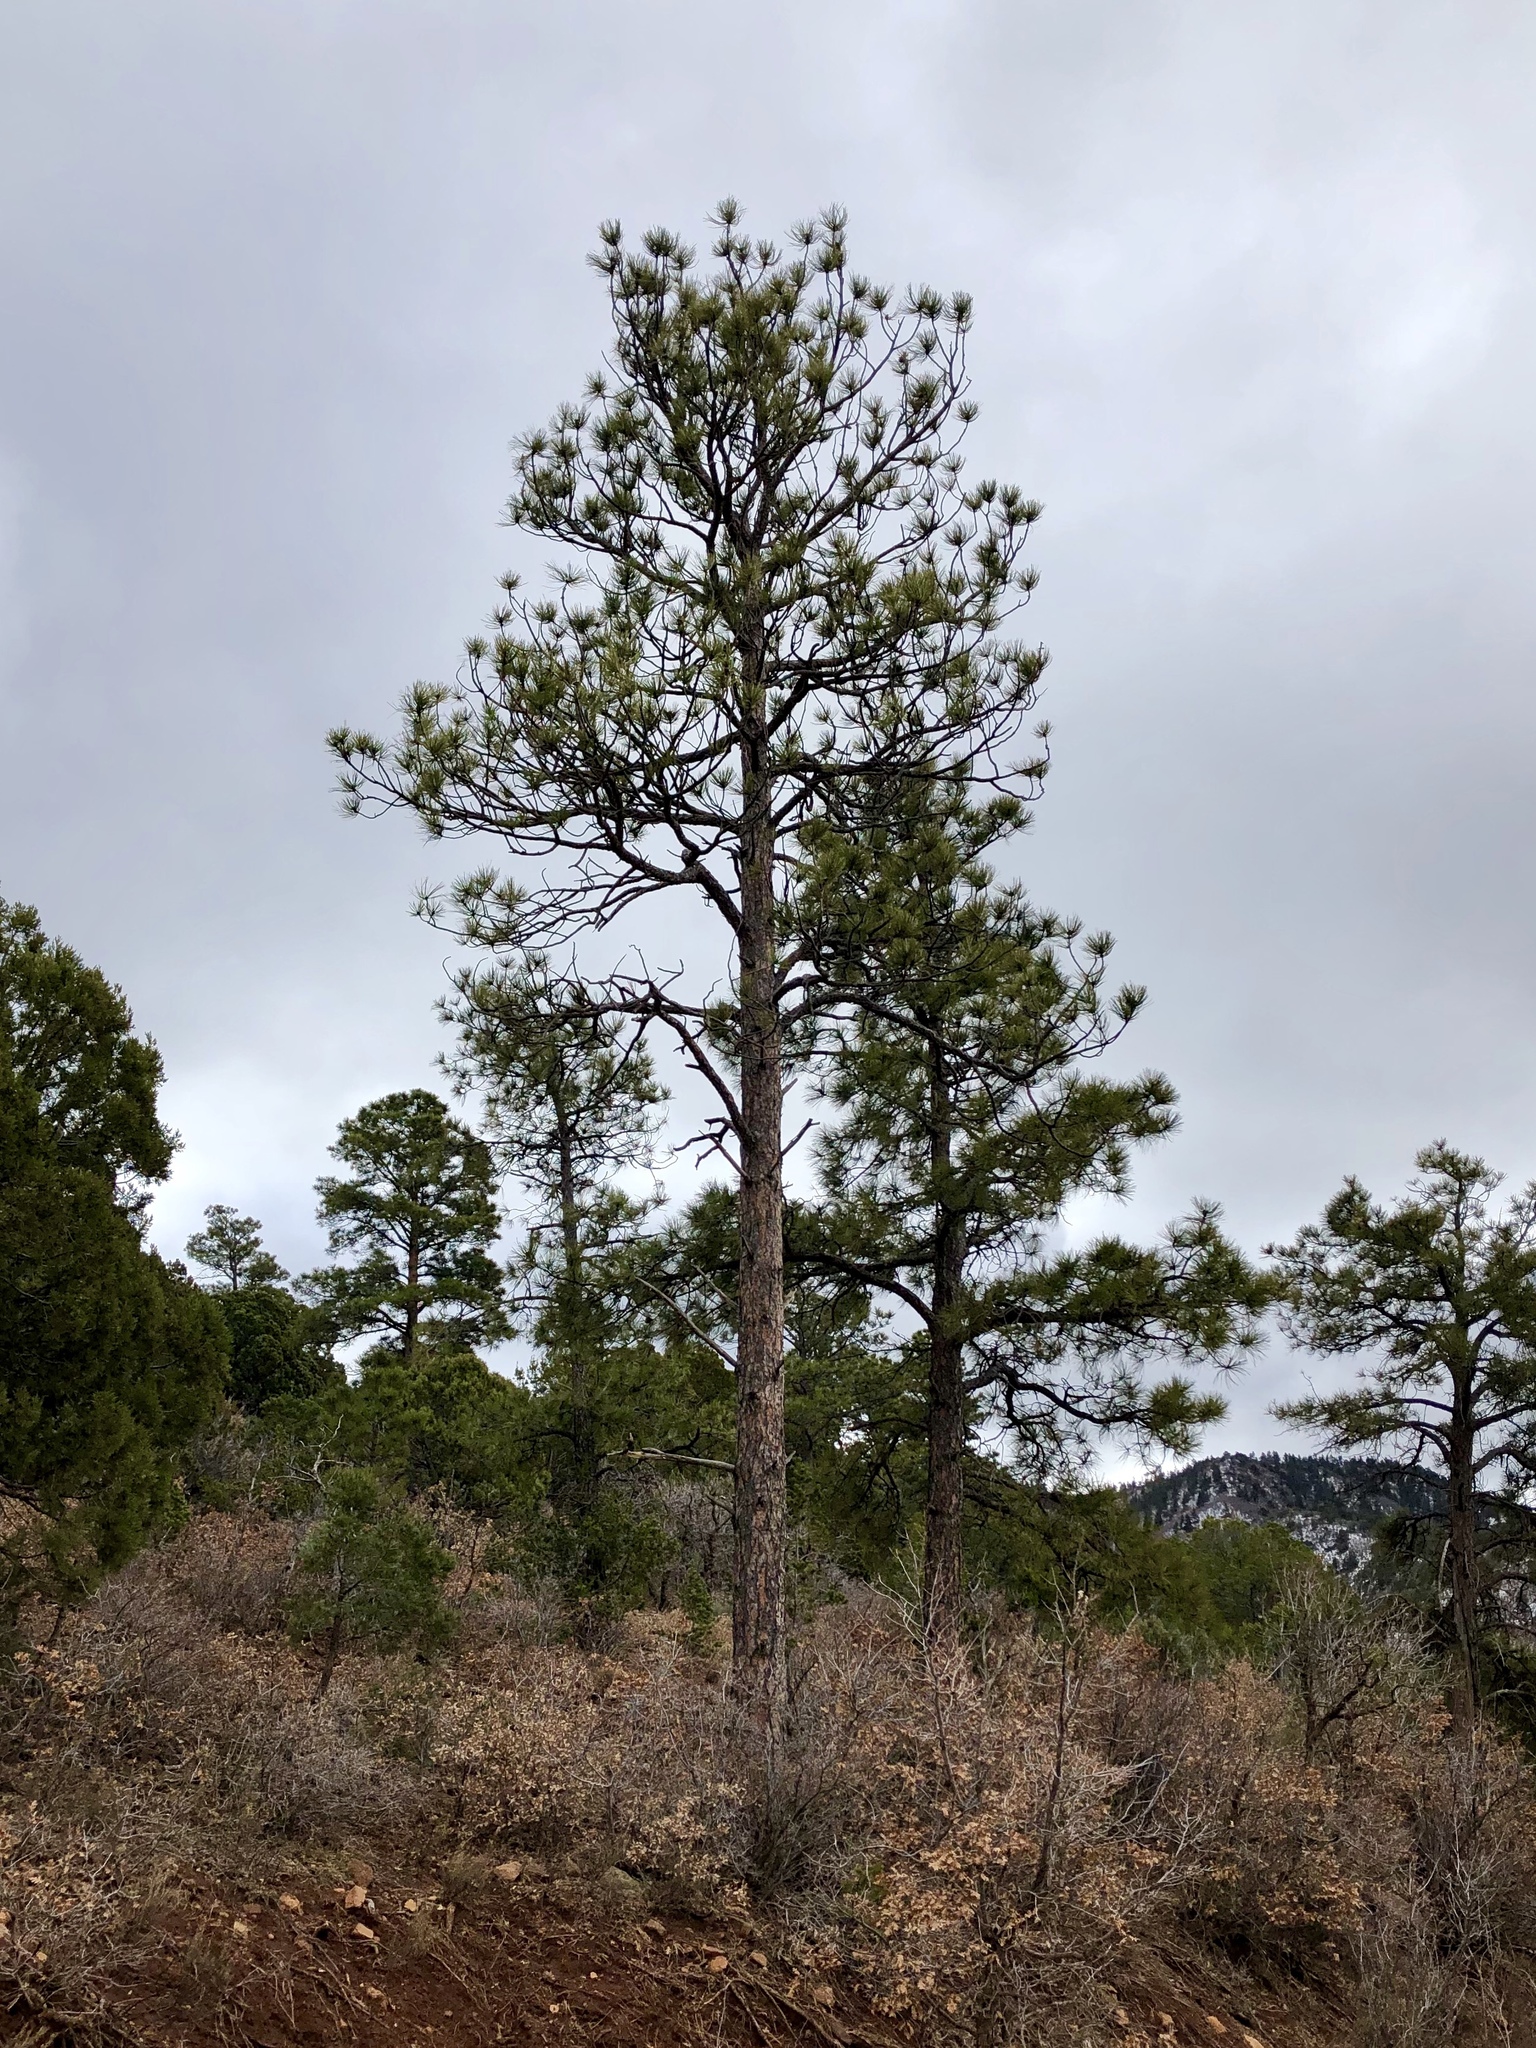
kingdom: Plantae
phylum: Tracheophyta
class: Pinopsida
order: Pinales
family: Pinaceae
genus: Pinus
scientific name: Pinus ponderosa
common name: Western yellow-pine
